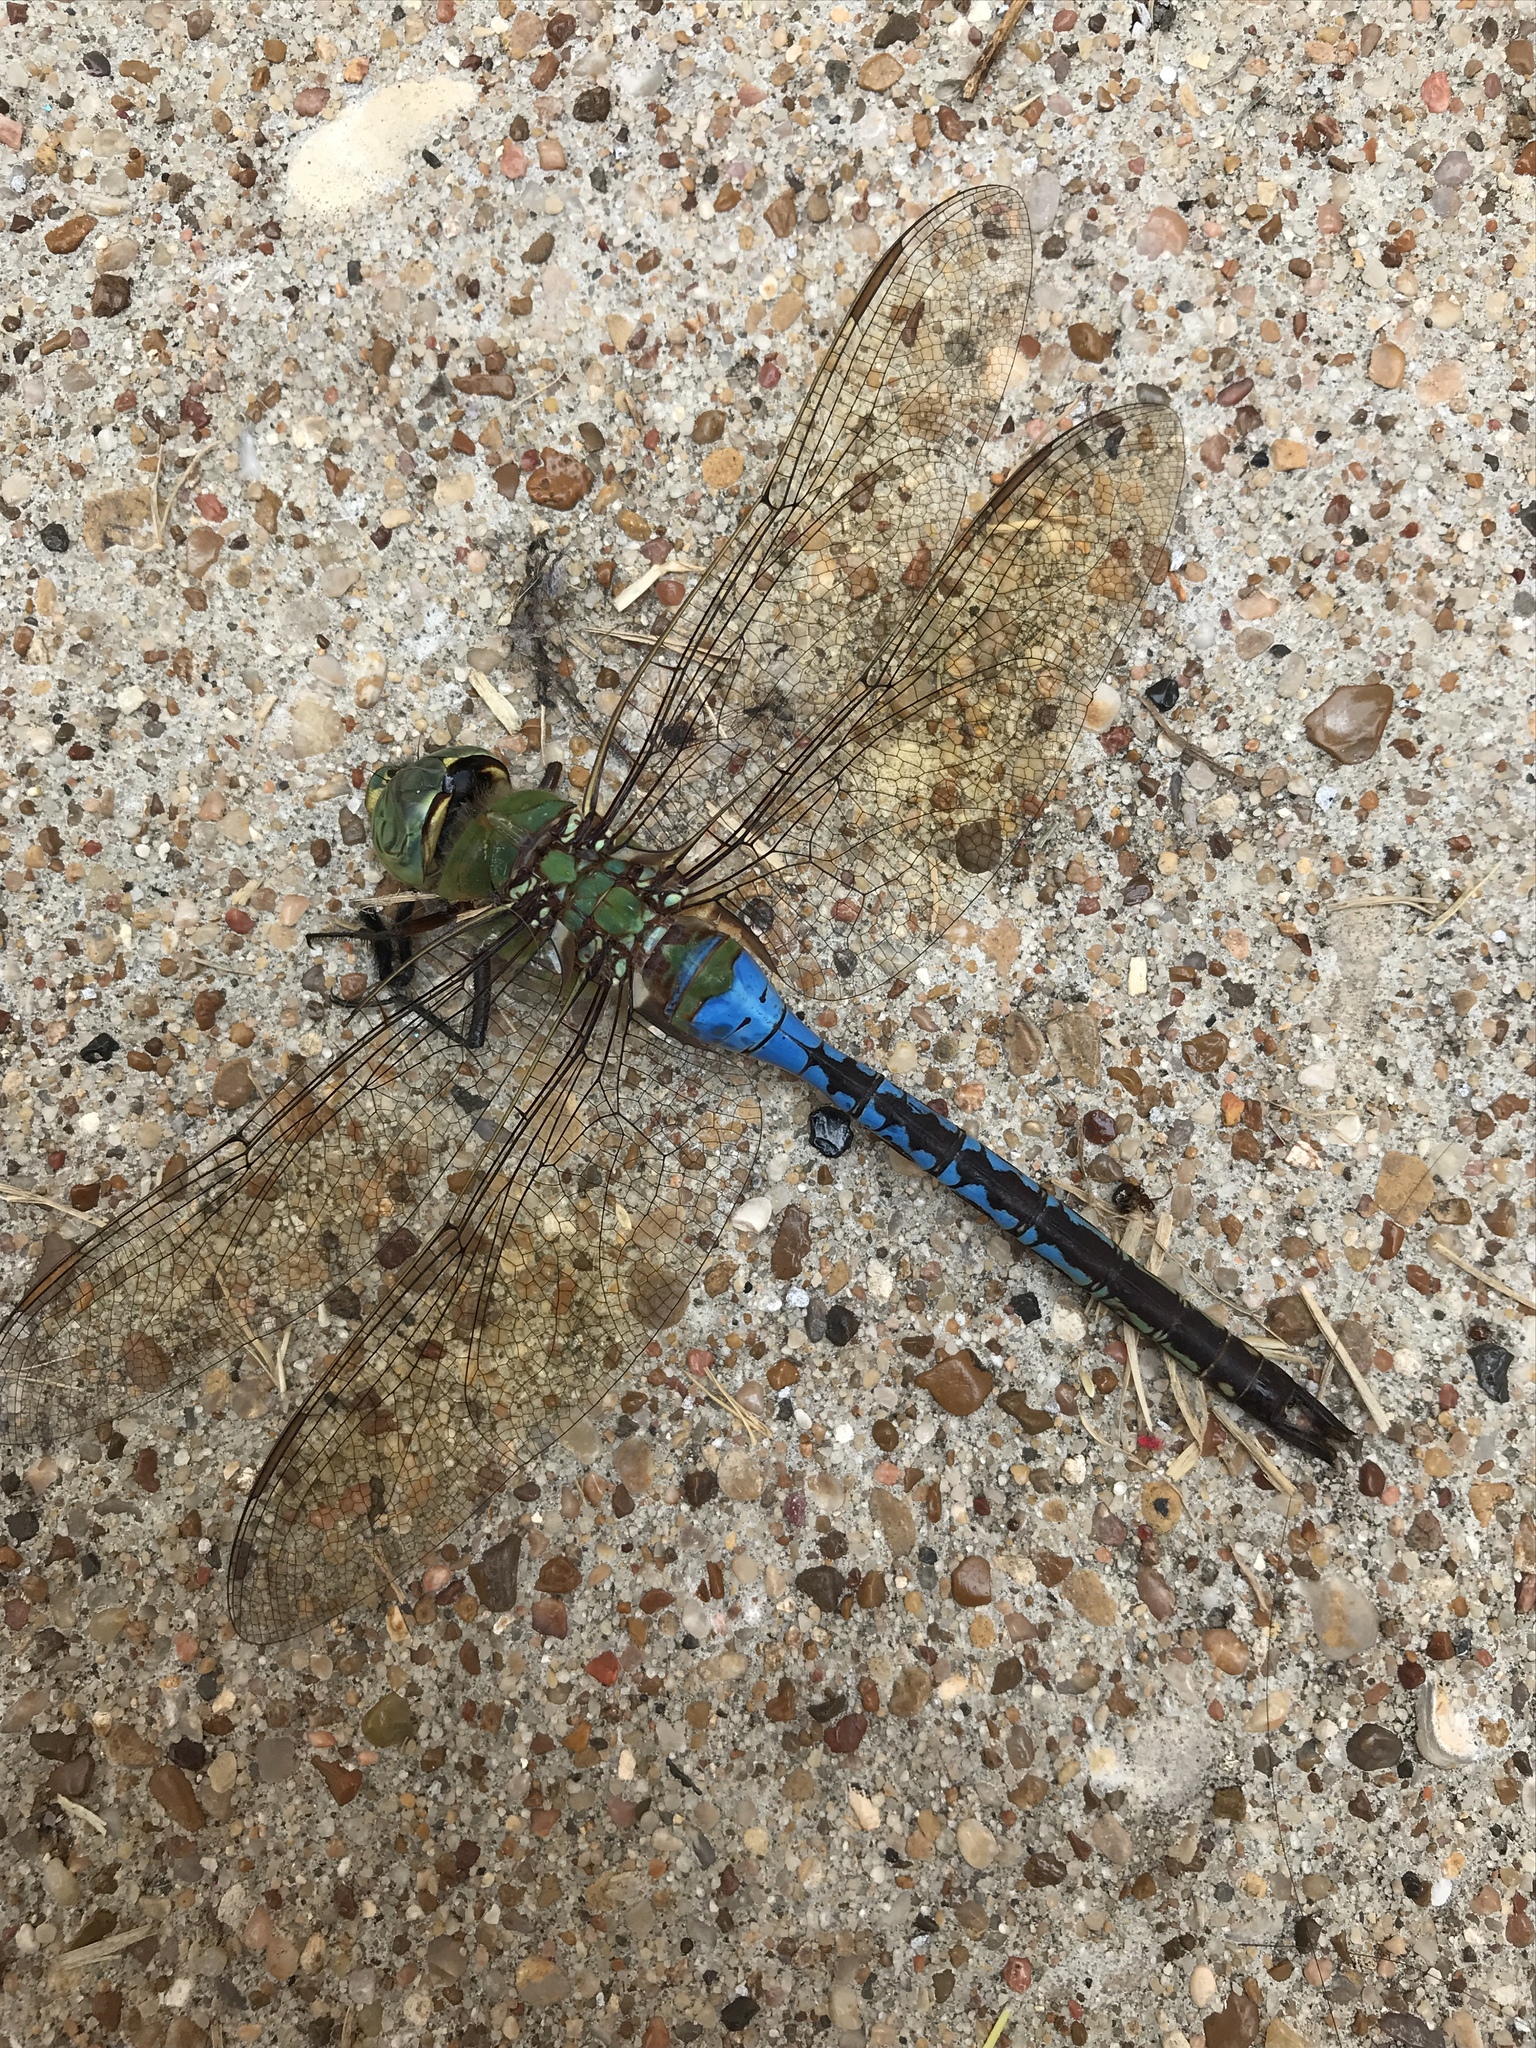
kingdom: Animalia
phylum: Arthropoda
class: Insecta
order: Odonata
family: Aeshnidae
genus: Anax
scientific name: Anax junius
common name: Common green darner
